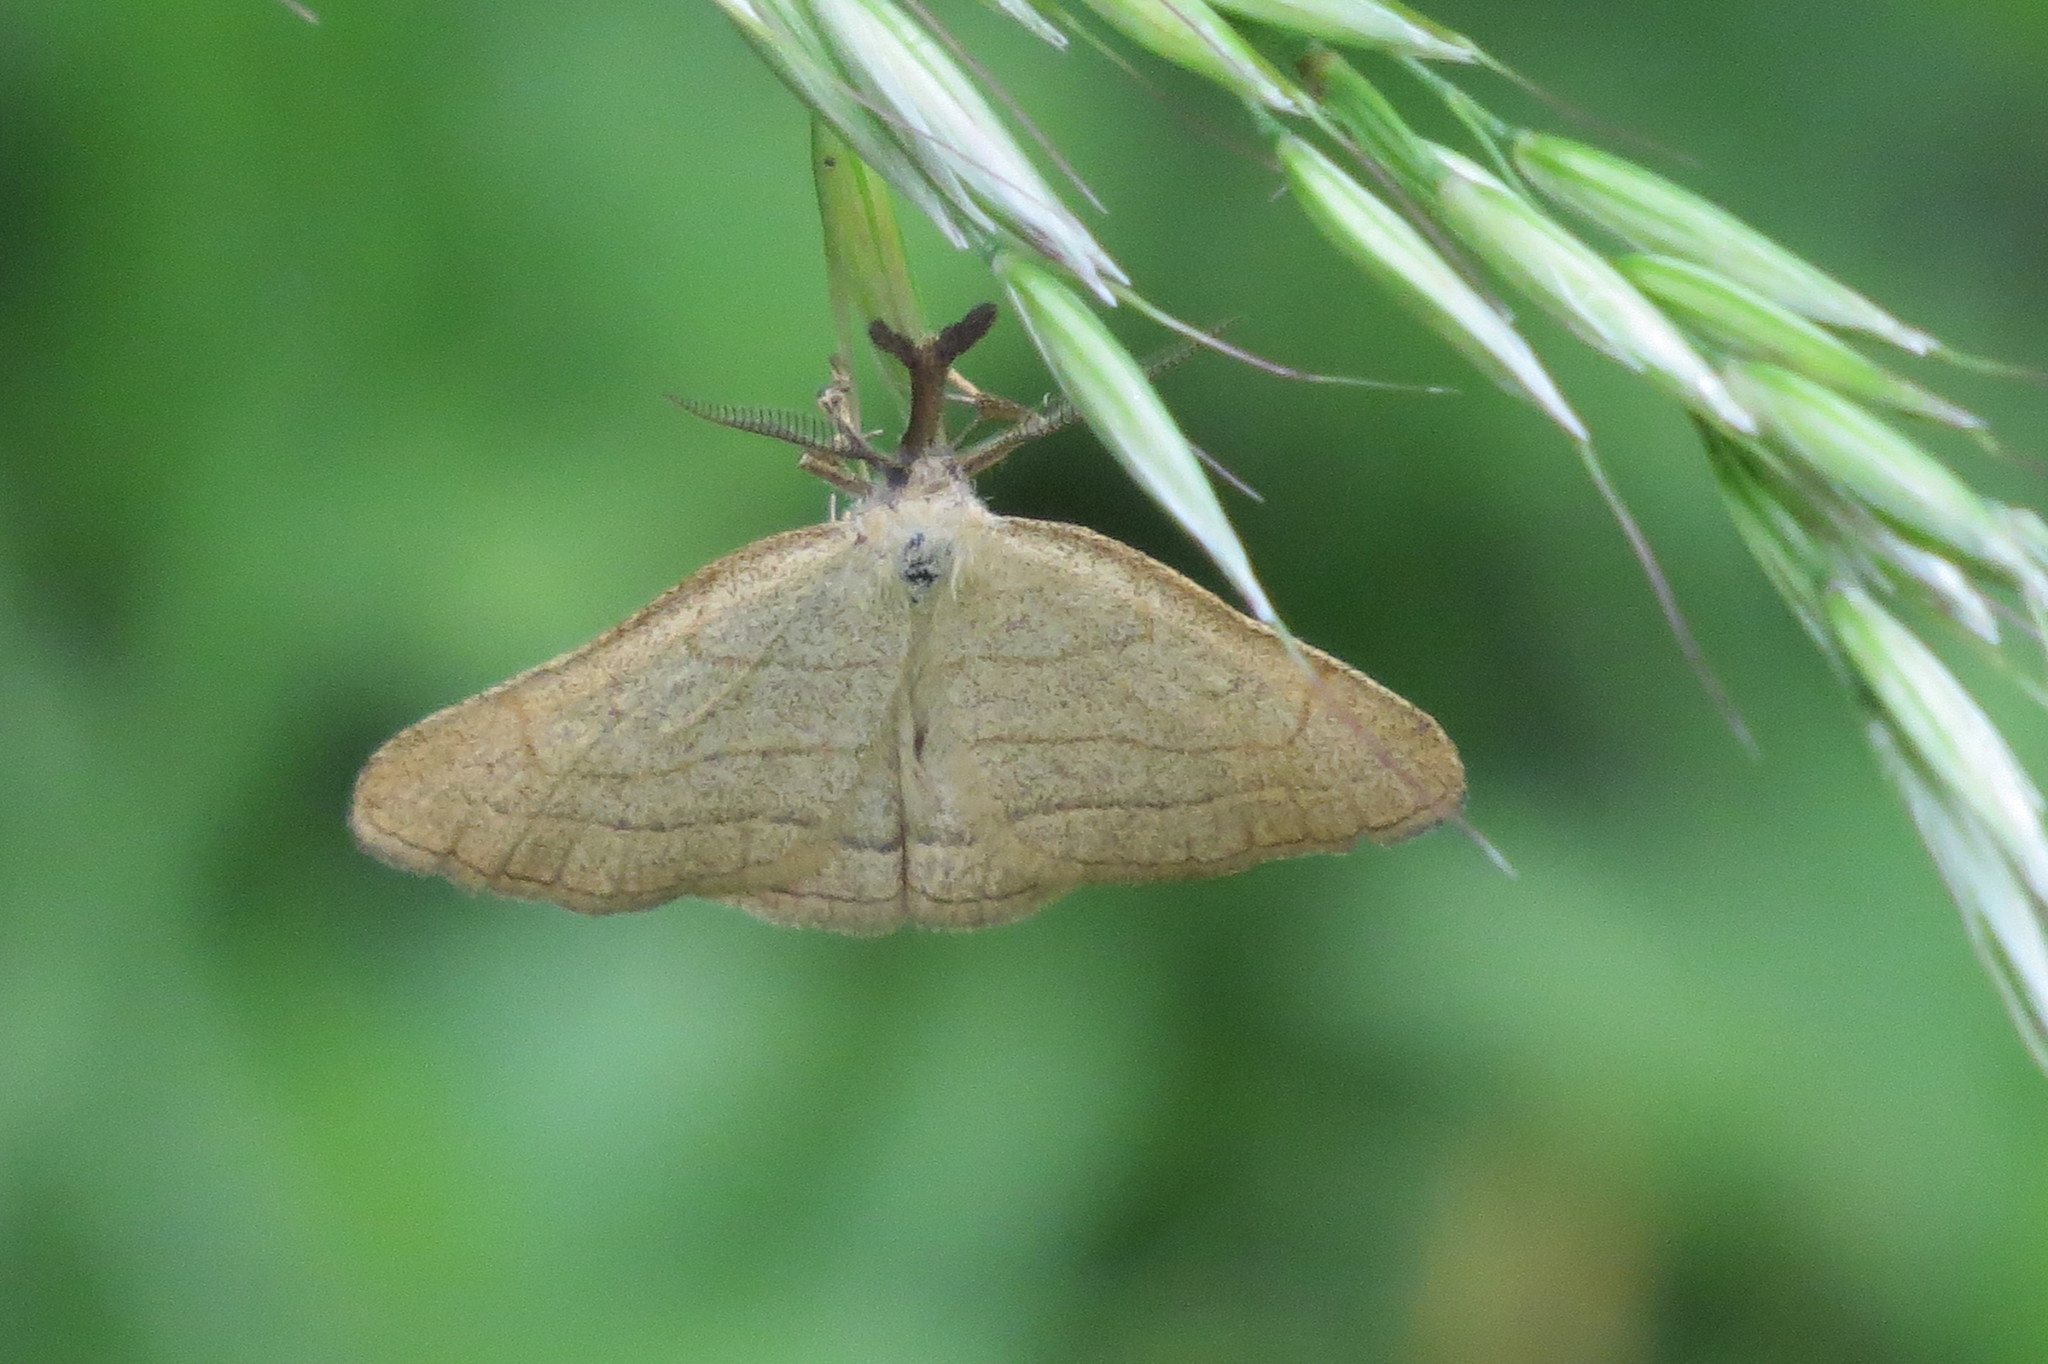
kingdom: Animalia
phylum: Arthropoda
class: Insecta
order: Lepidoptera
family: Erebidae
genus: Polypogon
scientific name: Polypogon tentacularia
